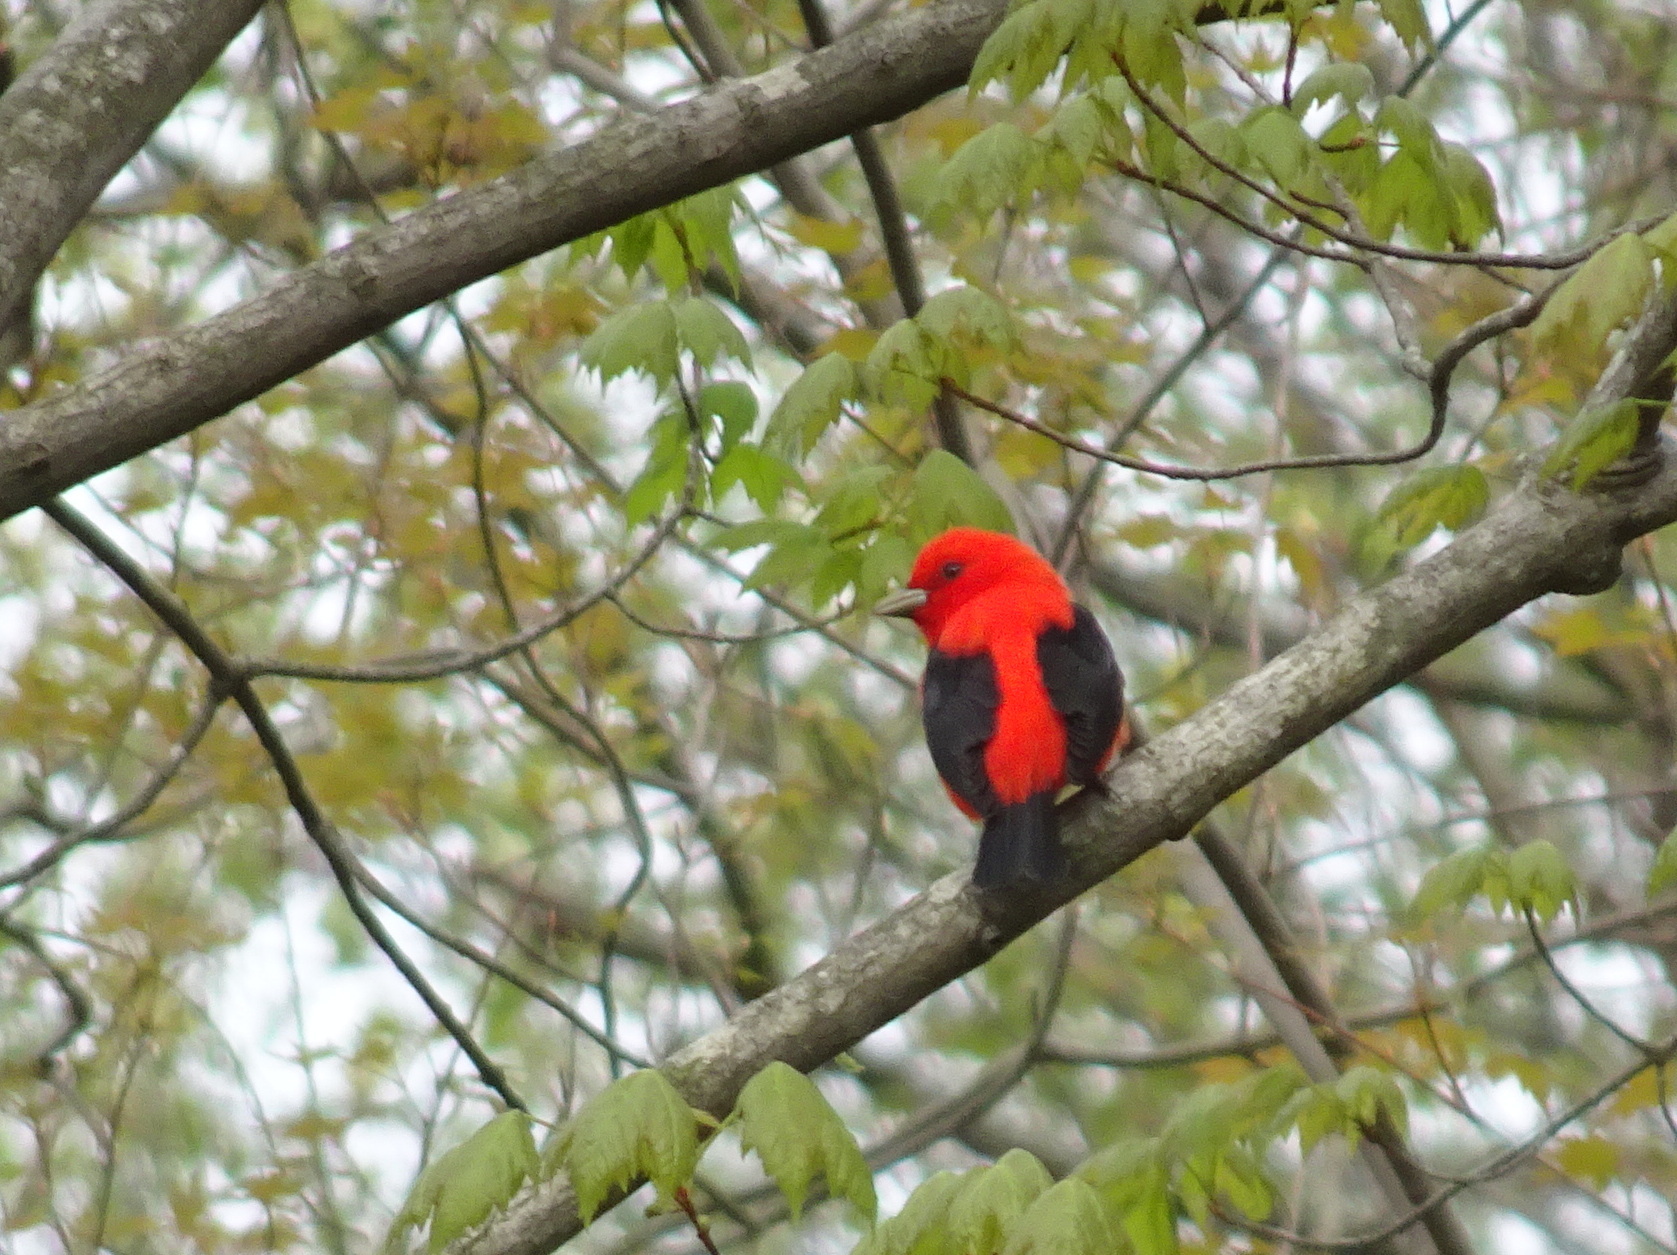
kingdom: Animalia
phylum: Chordata
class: Aves
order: Passeriformes
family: Cardinalidae
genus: Piranga
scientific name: Piranga olivacea
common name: Scarlet tanager
